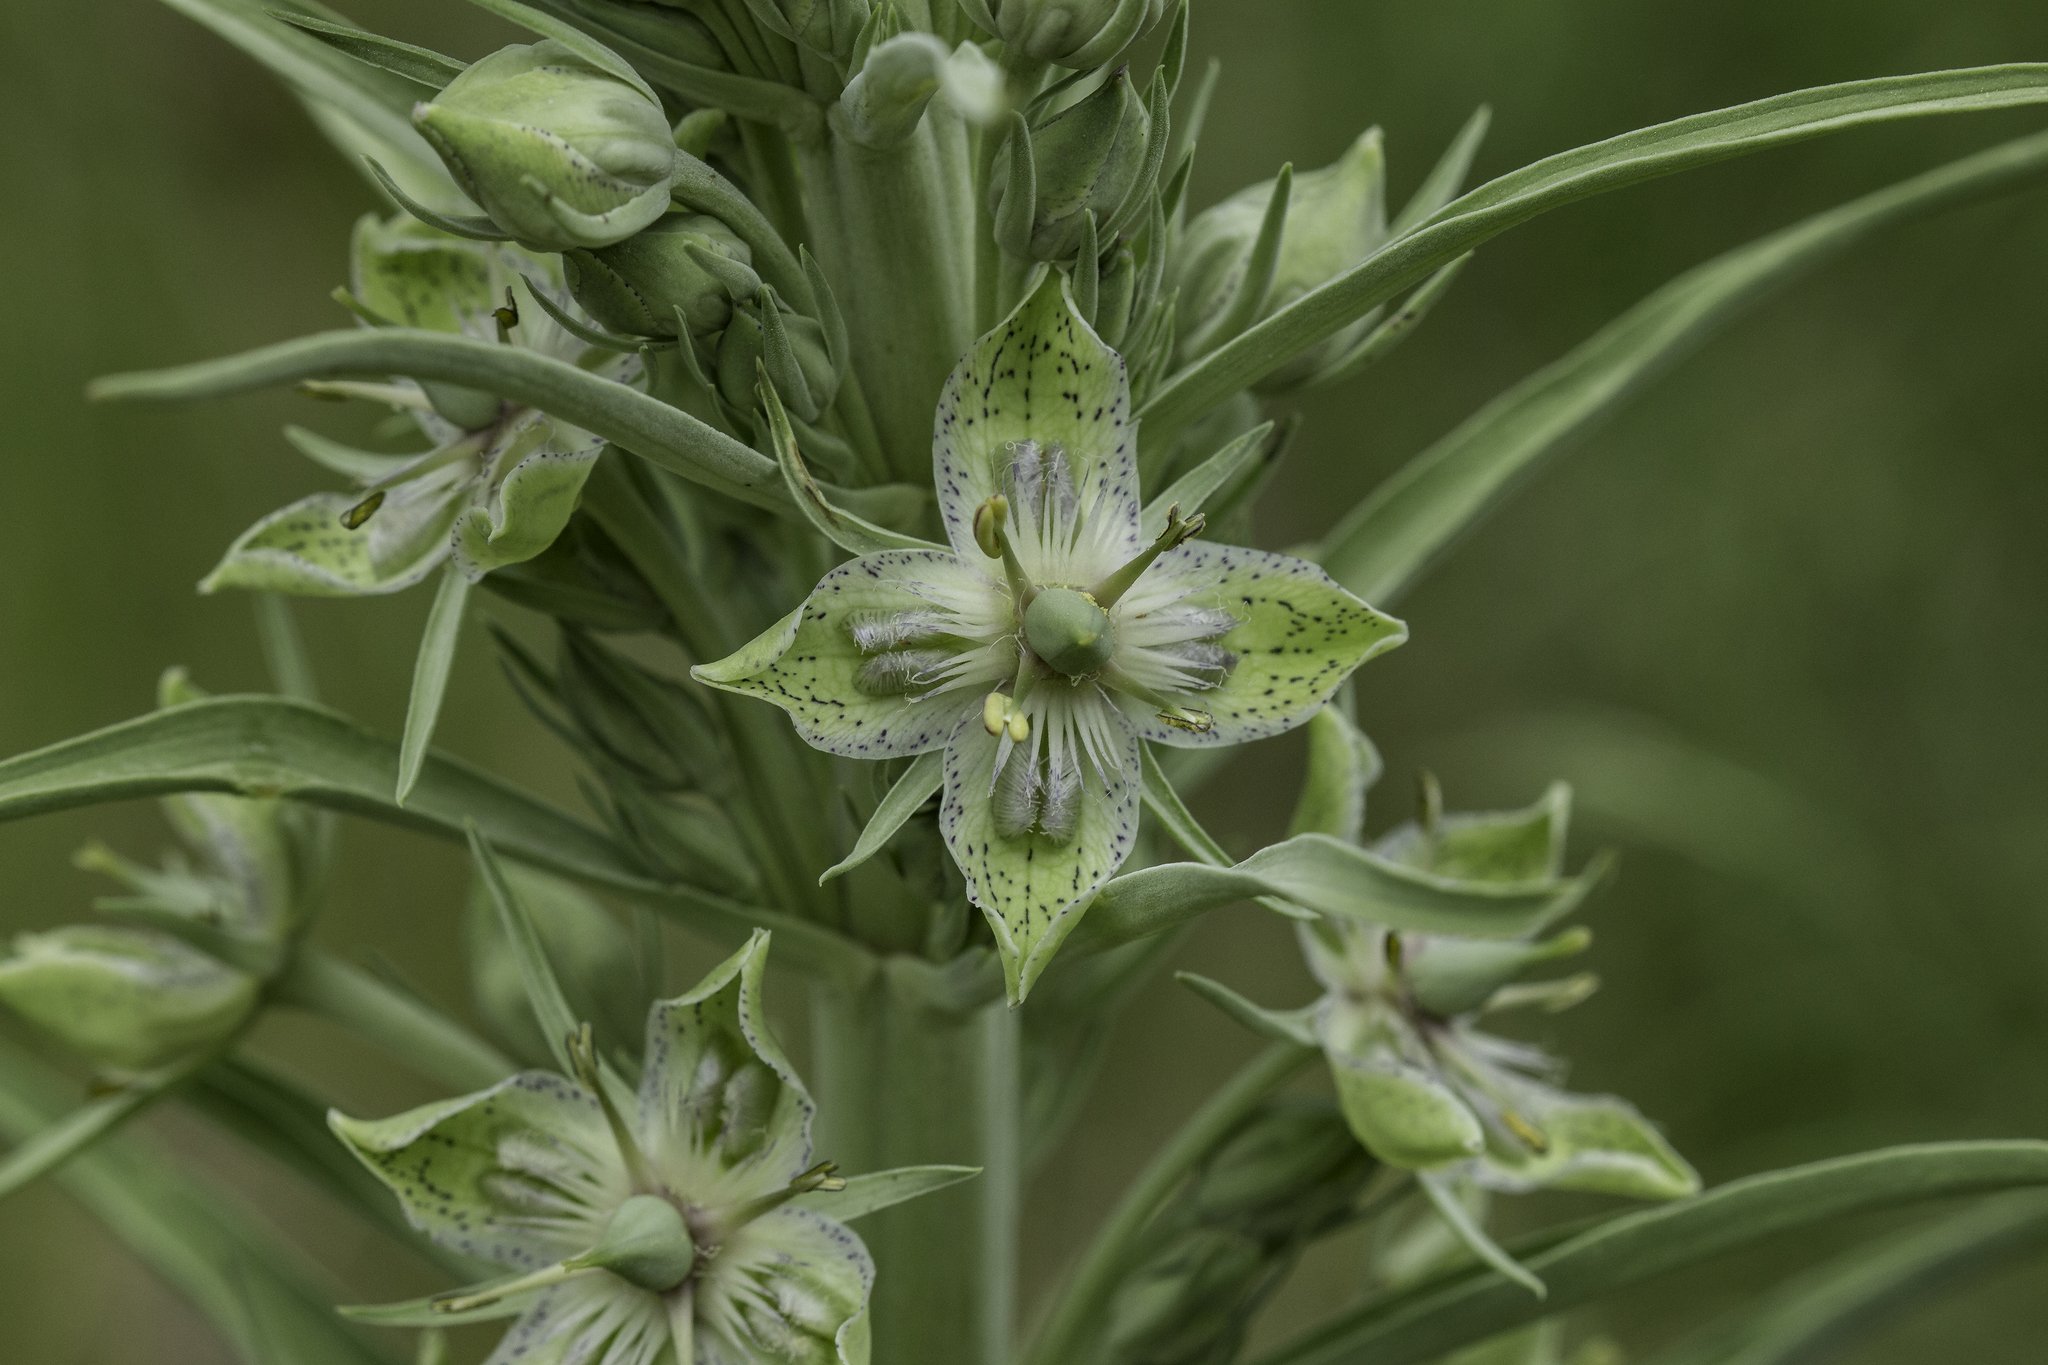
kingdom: Plantae
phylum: Tracheophyta
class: Magnoliopsida
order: Gentianales
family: Gentianaceae
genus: Frasera
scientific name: Frasera speciosa
